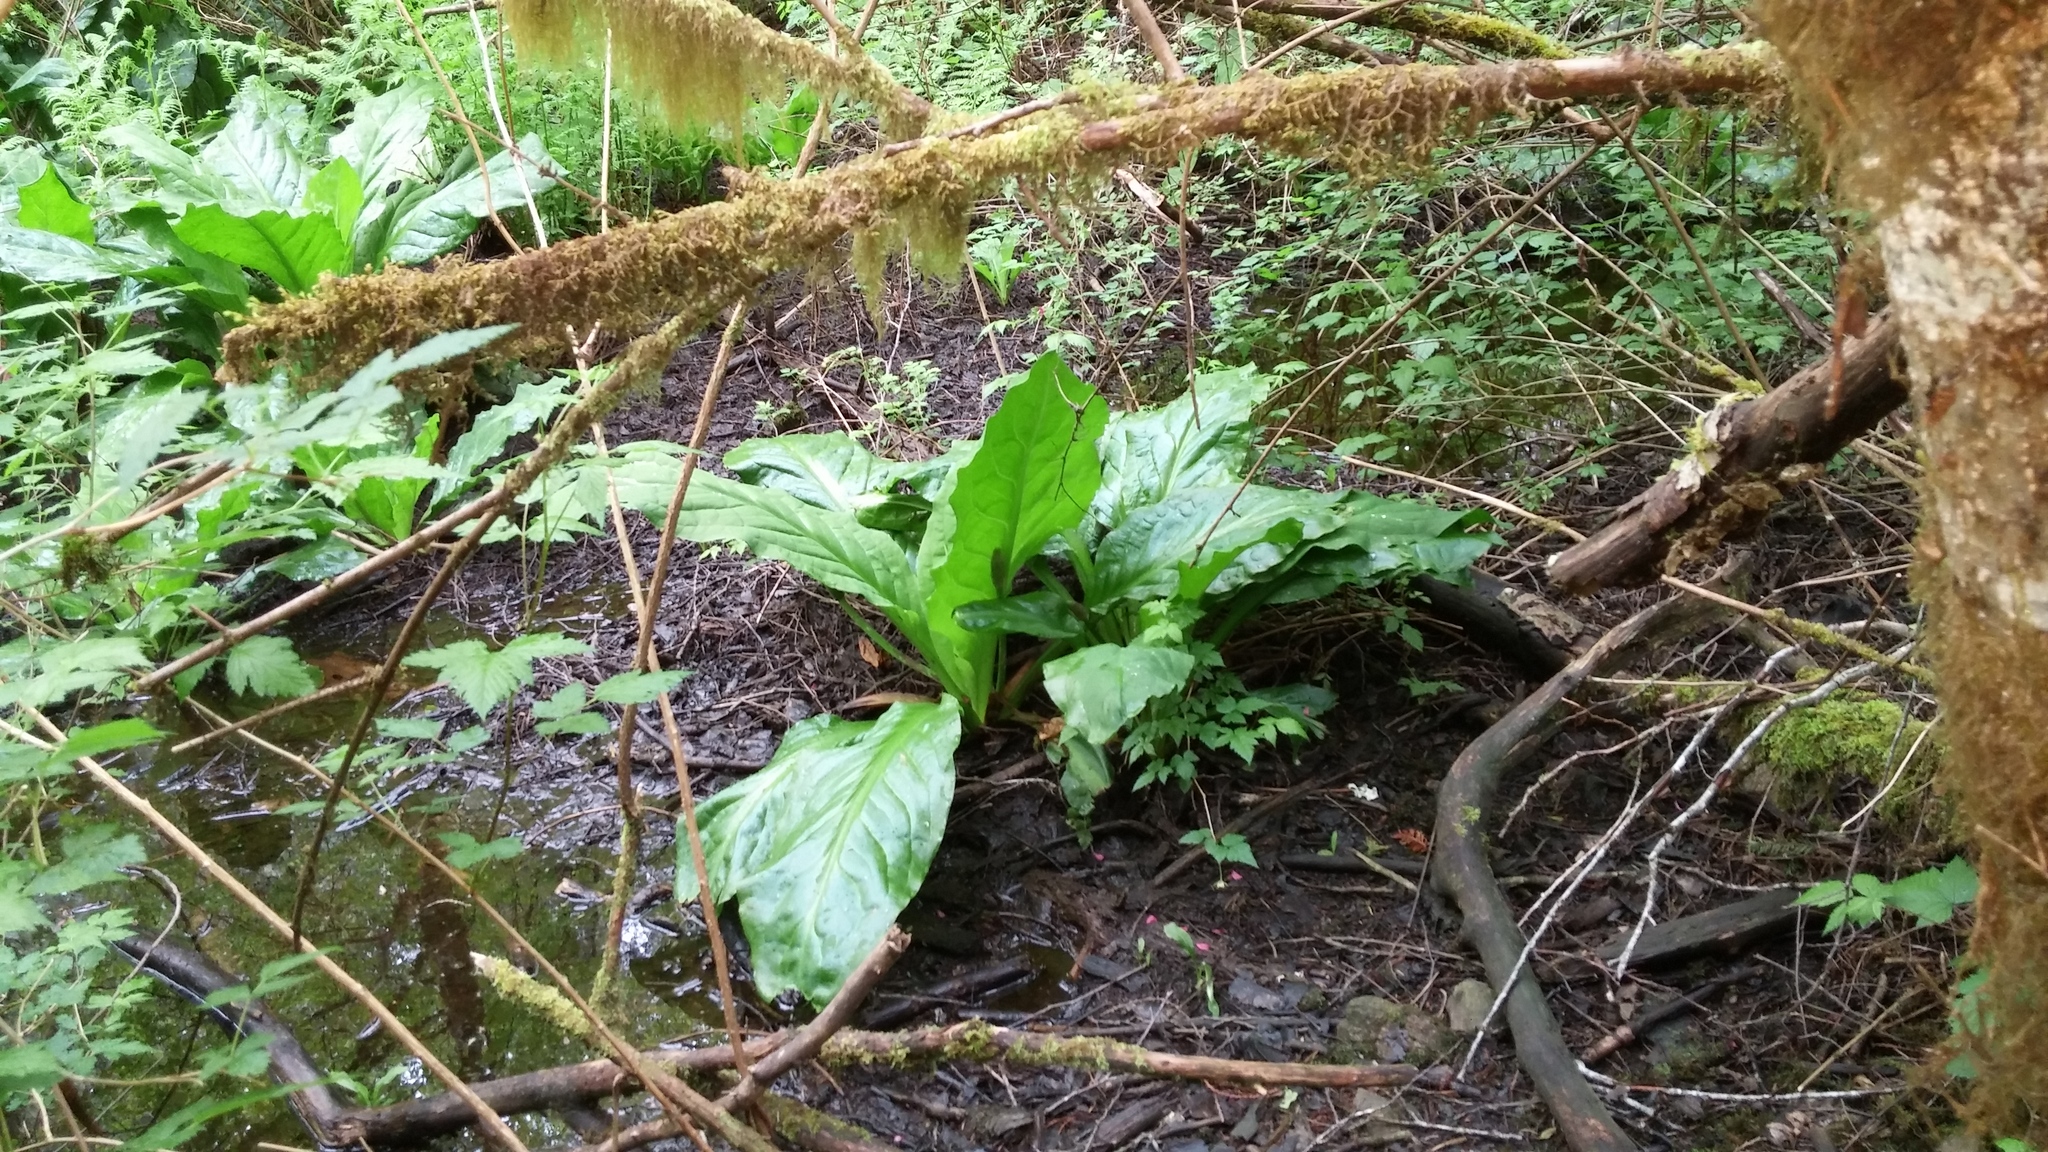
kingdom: Plantae
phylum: Tracheophyta
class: Liliopsida
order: Alismatales
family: Araceae
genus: Lysichiton
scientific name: Lysichiton americanus
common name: American skunk cabbage
